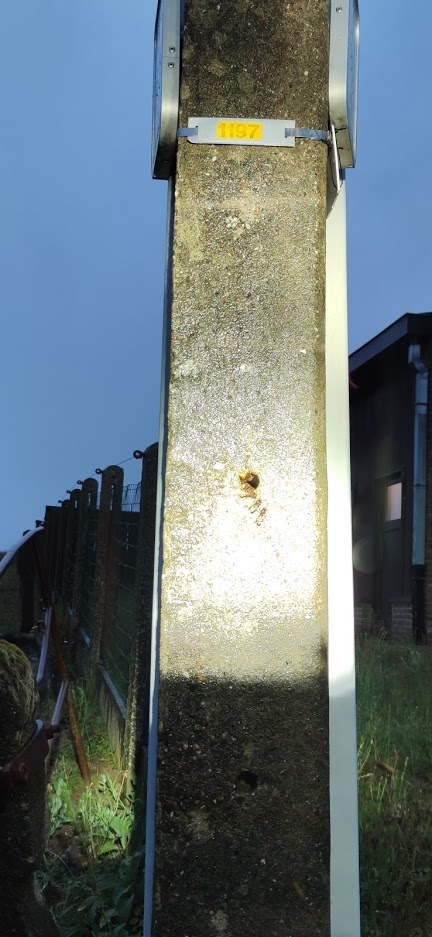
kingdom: Animalia
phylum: Arthropoda
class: Insecta
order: Hymenoptera
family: Vespidae
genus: Vespa
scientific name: Vespa crabro
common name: Hornet
